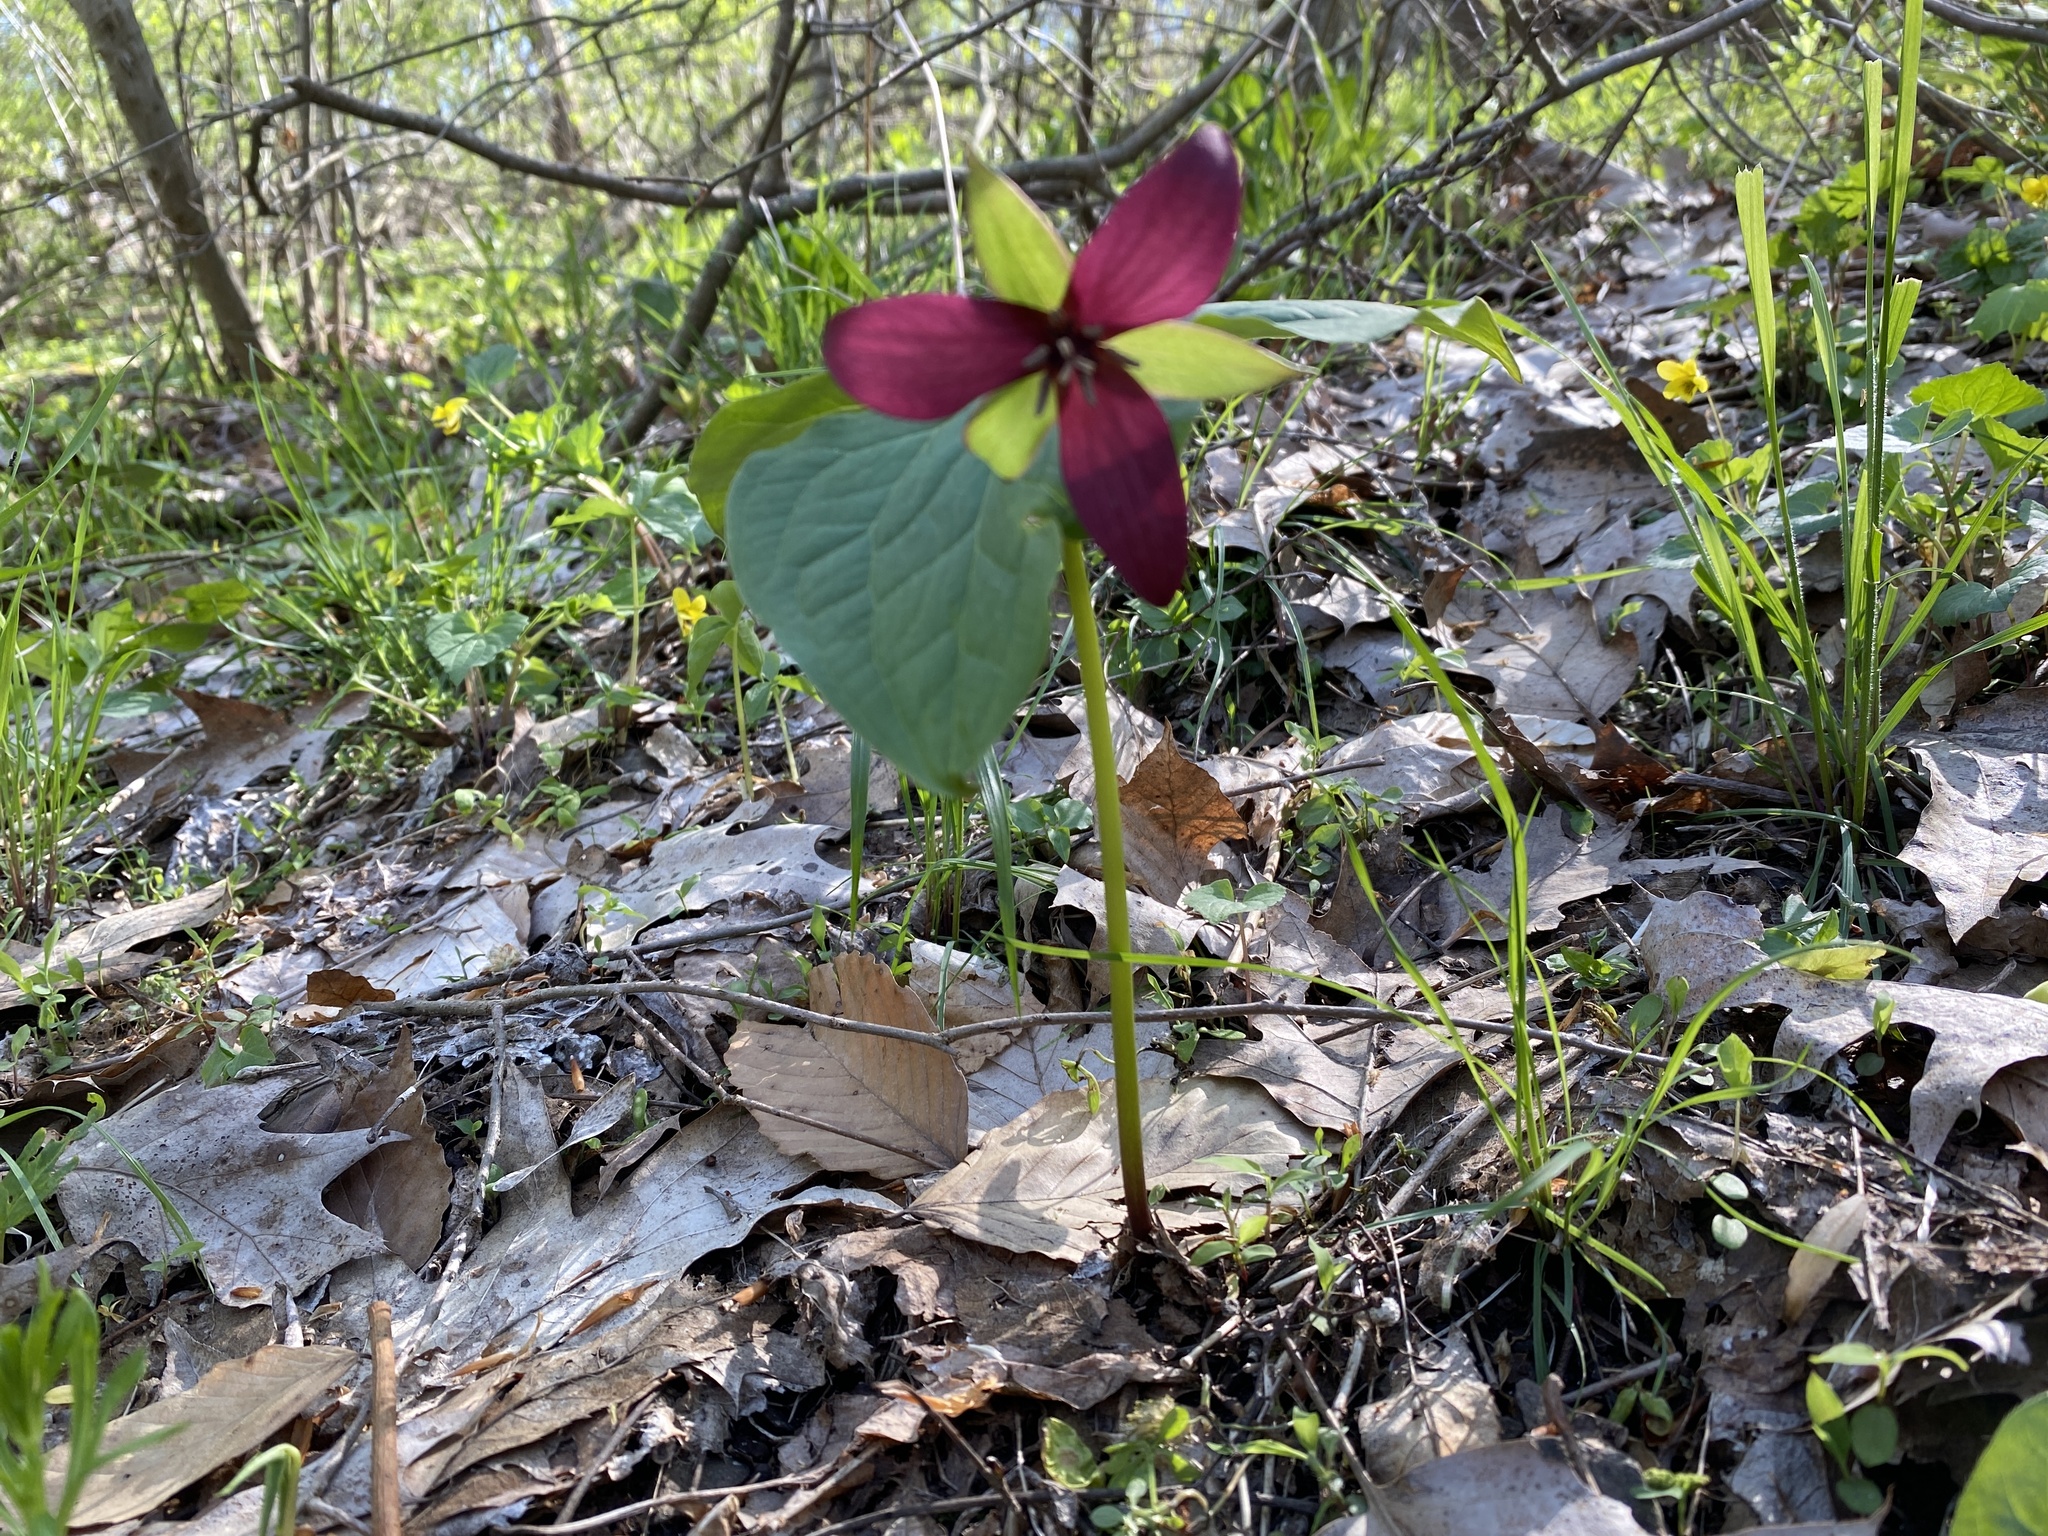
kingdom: Plantae
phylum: Tracheophyta
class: Liliopsida
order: Liliales
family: Melanthiaceae
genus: Trillium
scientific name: Trillium erectum
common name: Purple trillium
